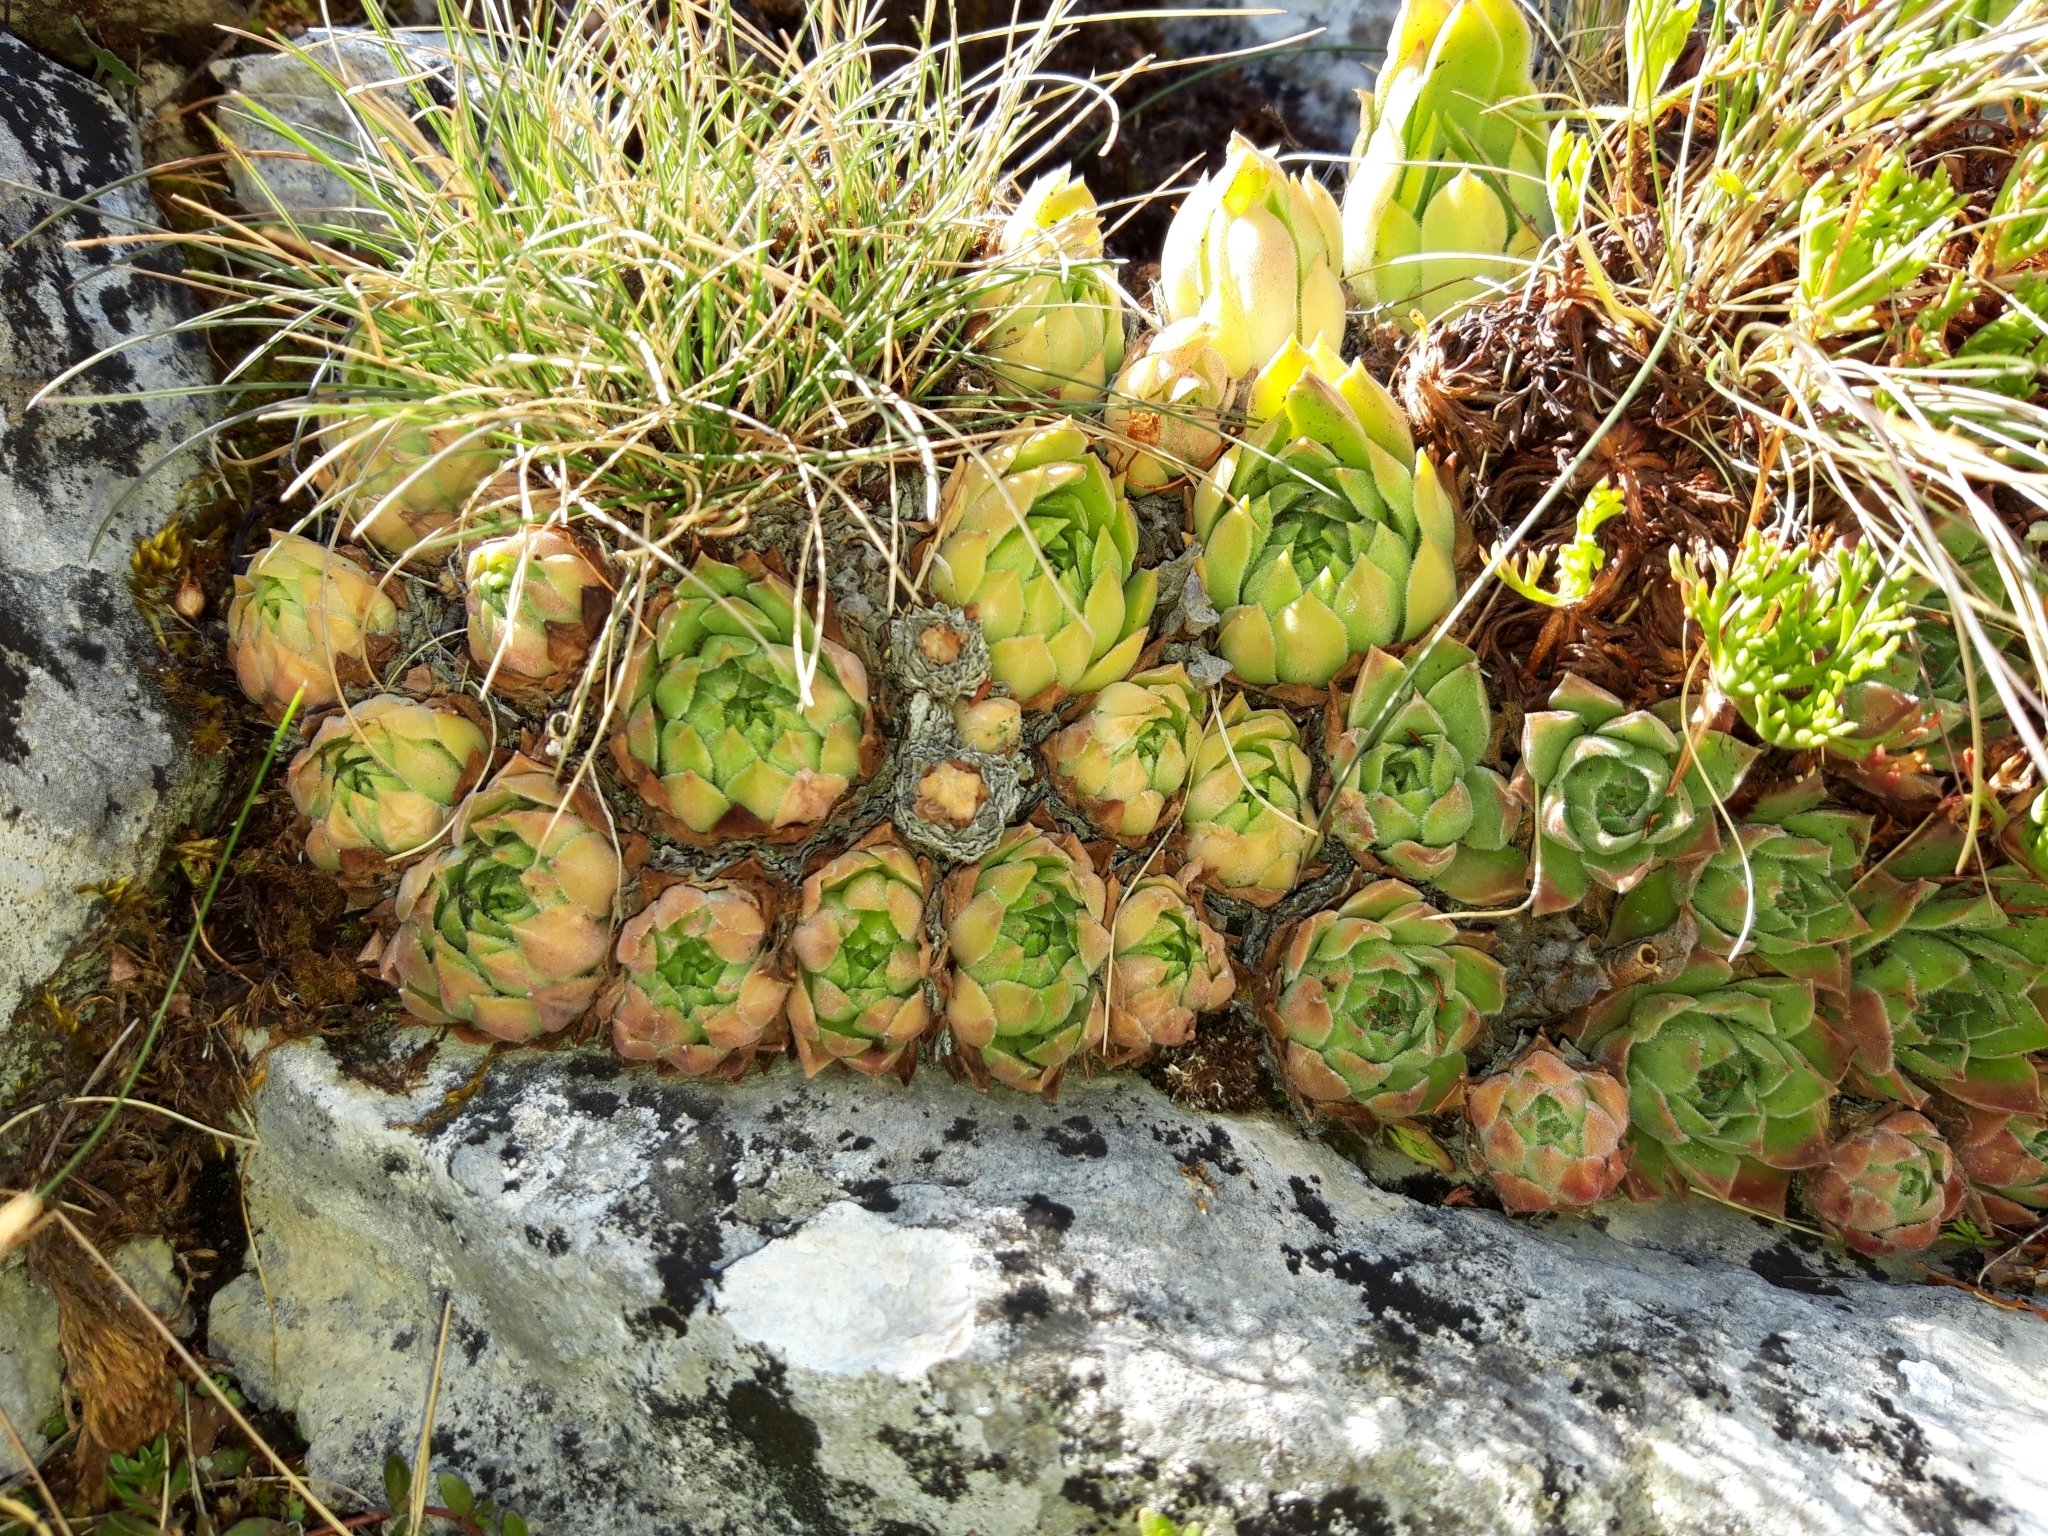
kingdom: Plantae
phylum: Tracheophyta
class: Magnoliopsida
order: Saxifragales
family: Crassulaceae
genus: Sempervivum
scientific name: Sempervivum vicentei
